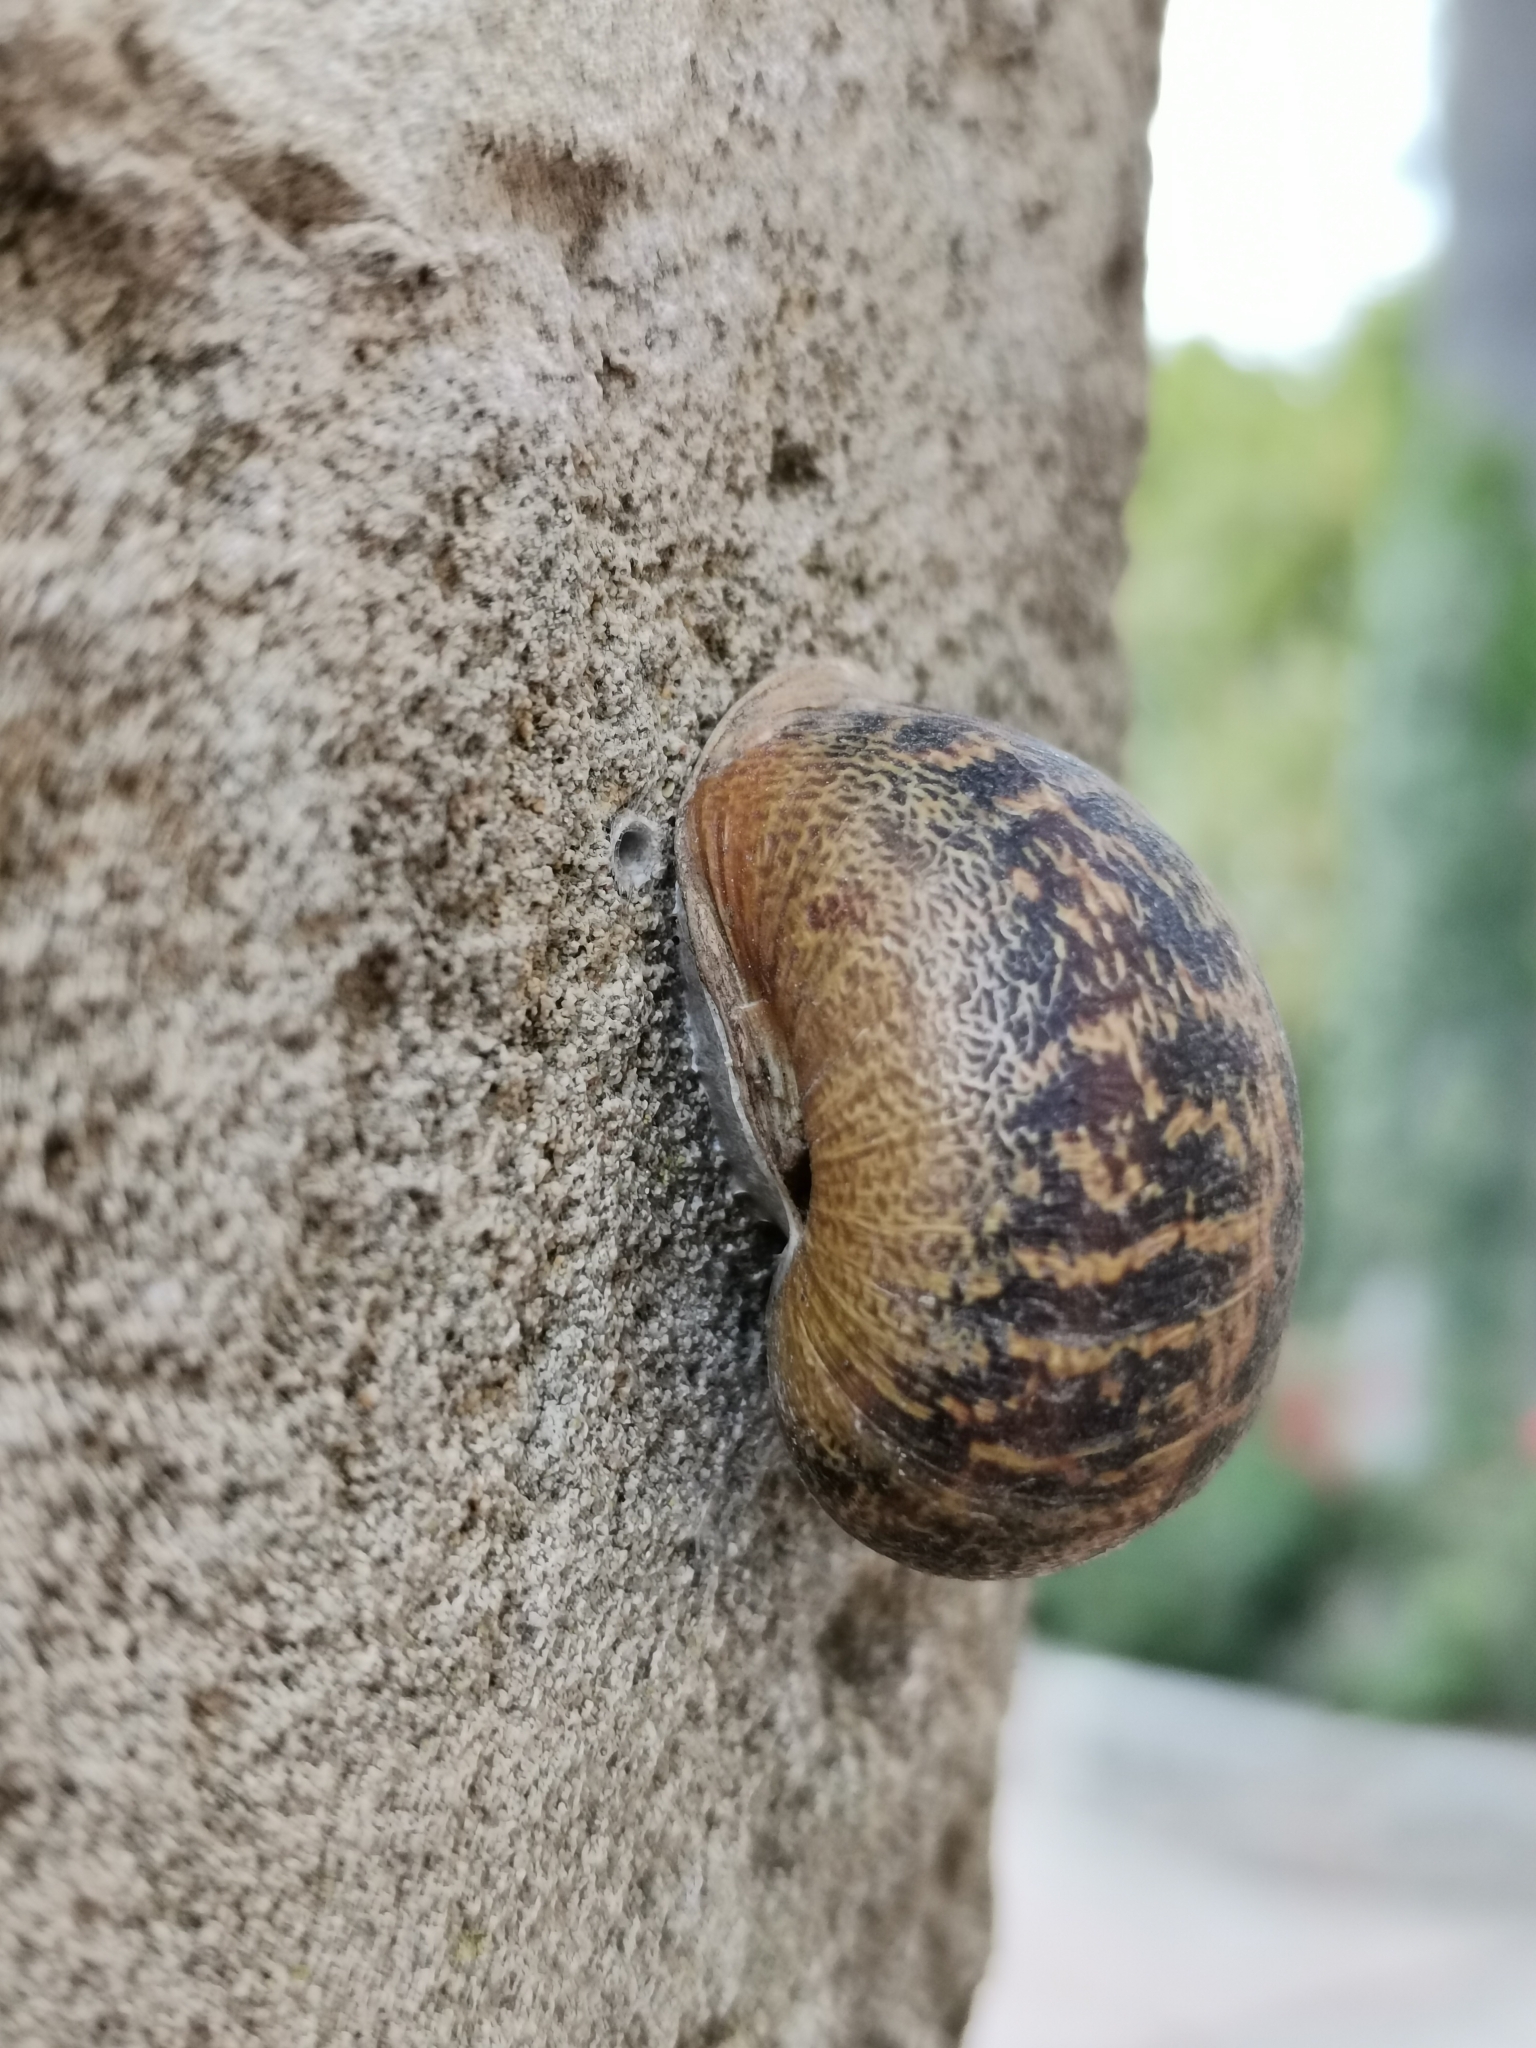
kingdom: Animalia
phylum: Mollusca
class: Gastropoda
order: Stylommatophora
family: Helicidae
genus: Cornu
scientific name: Cornu aspersum
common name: Brown garden snail
